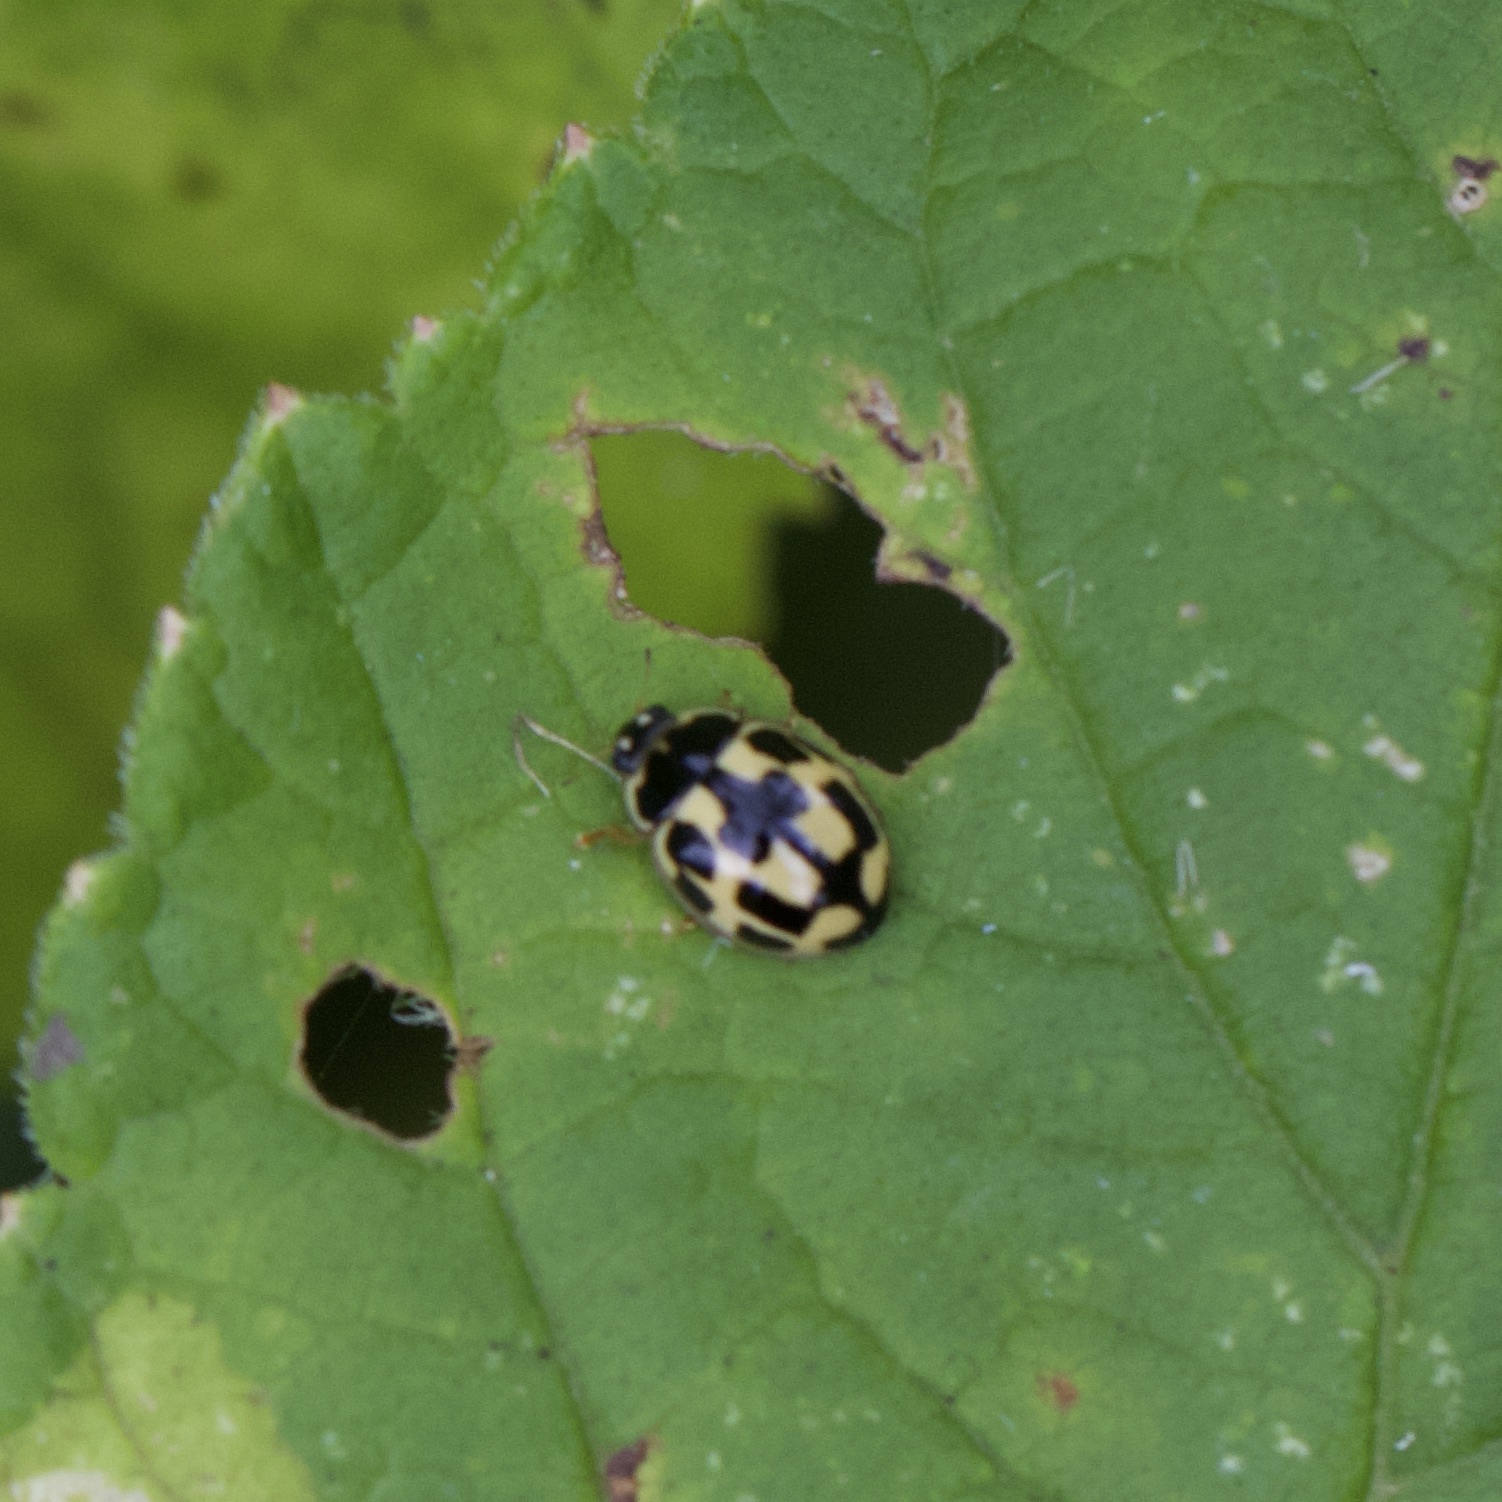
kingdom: Animalia
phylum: Arthropoda
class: Insecta
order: Coleoptera
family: Coccinellidae
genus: Propylaea
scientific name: Propylaea quatuordecimpunctata
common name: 14-spotted ladybird beetle
